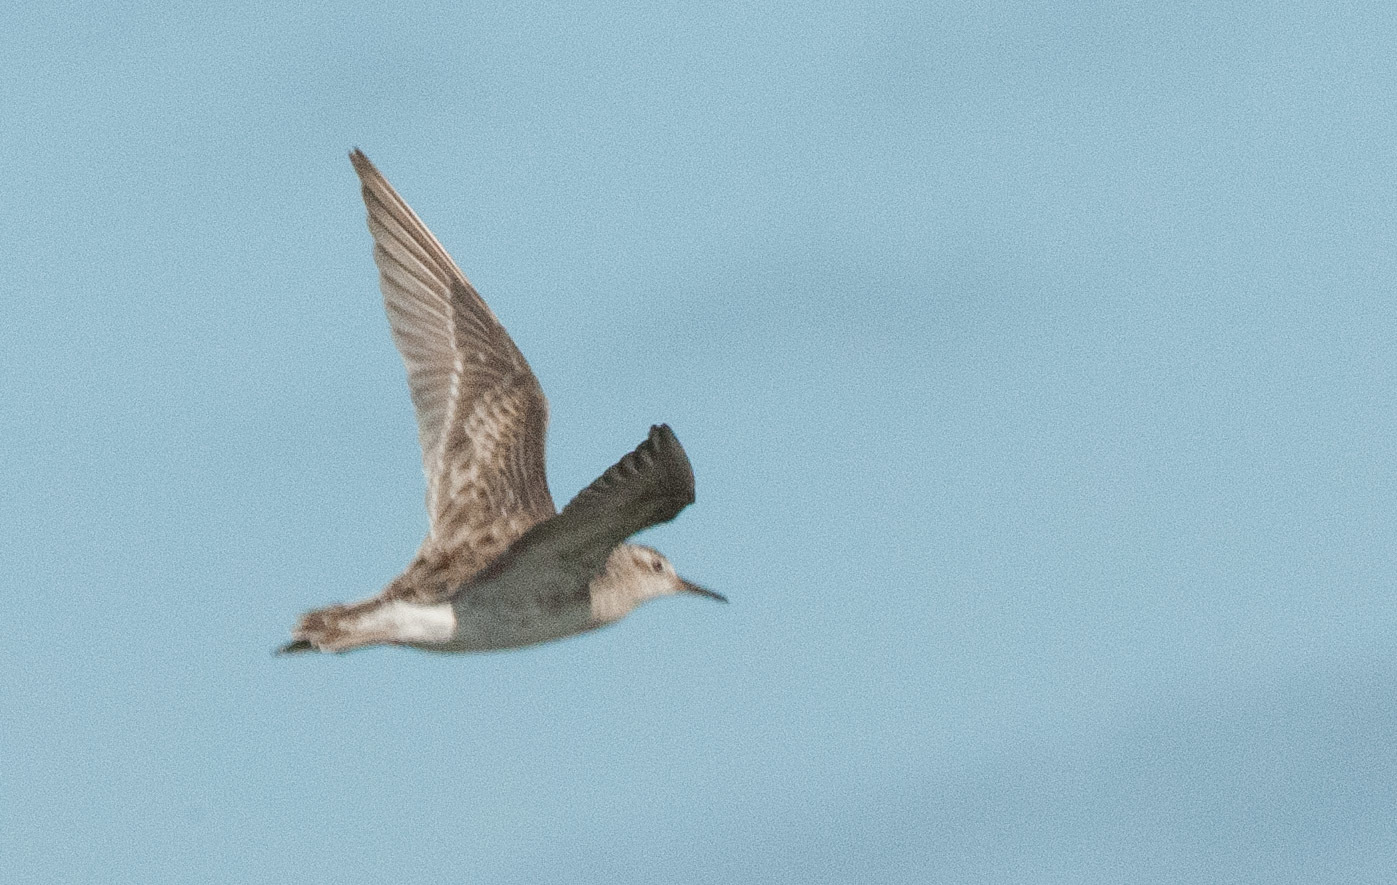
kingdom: Animalia
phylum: Chordata
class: Aves
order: Charadriiformes
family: Scolopacidae
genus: Calidris
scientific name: Calidris acuminata
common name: Sharp-tailed sandpiper
